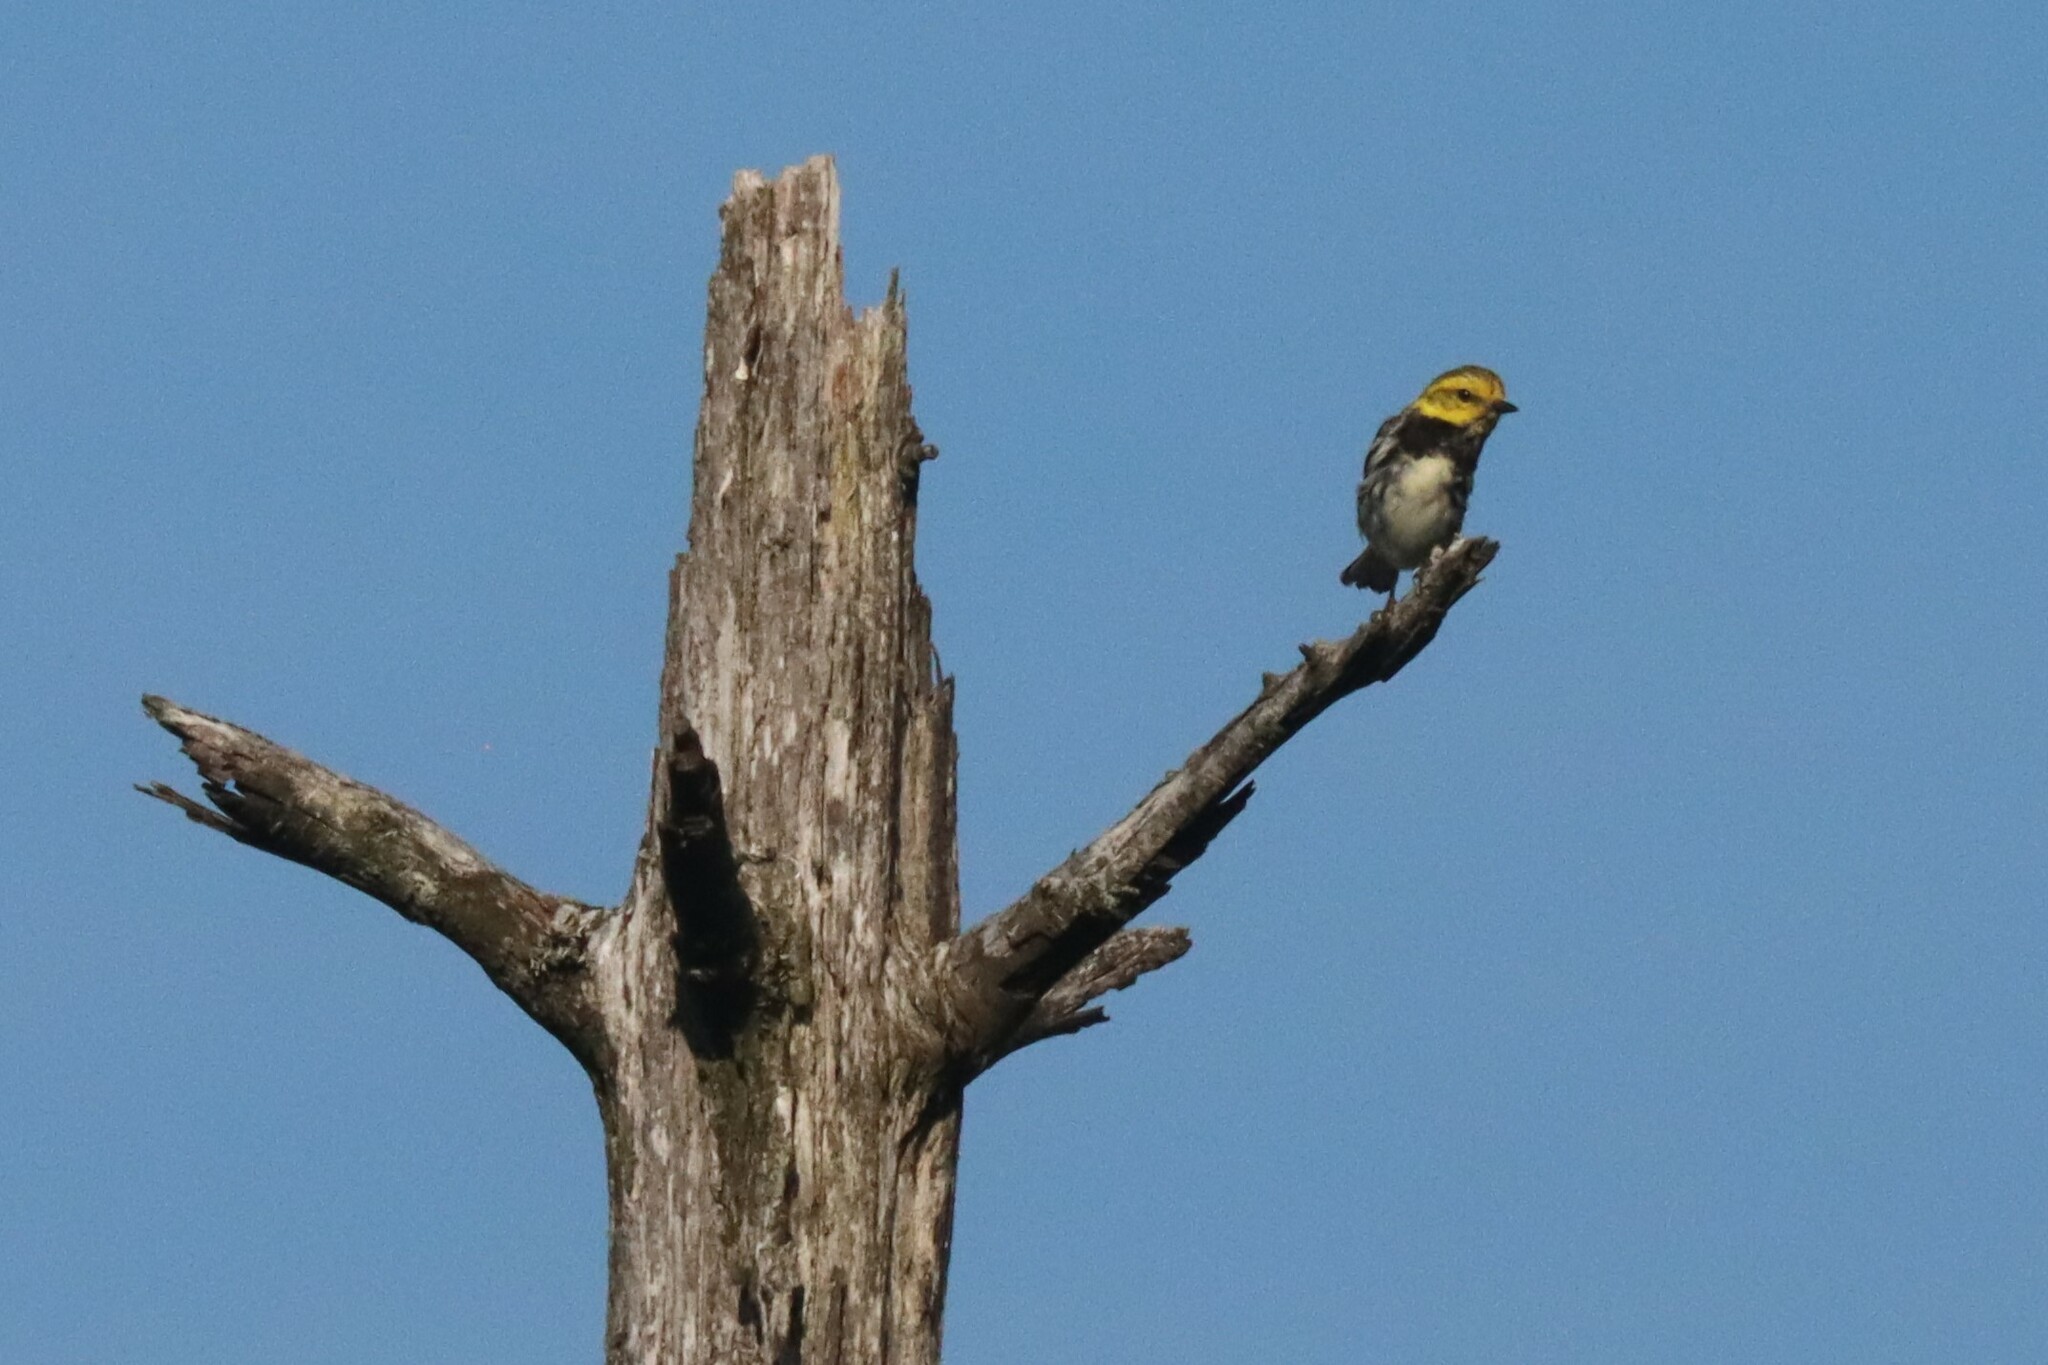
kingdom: Animalia
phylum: Chordata
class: Aves
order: Passeriformes
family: Parulidae
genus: Setophaga
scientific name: Setophaga virens
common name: Black-throated green warbler
